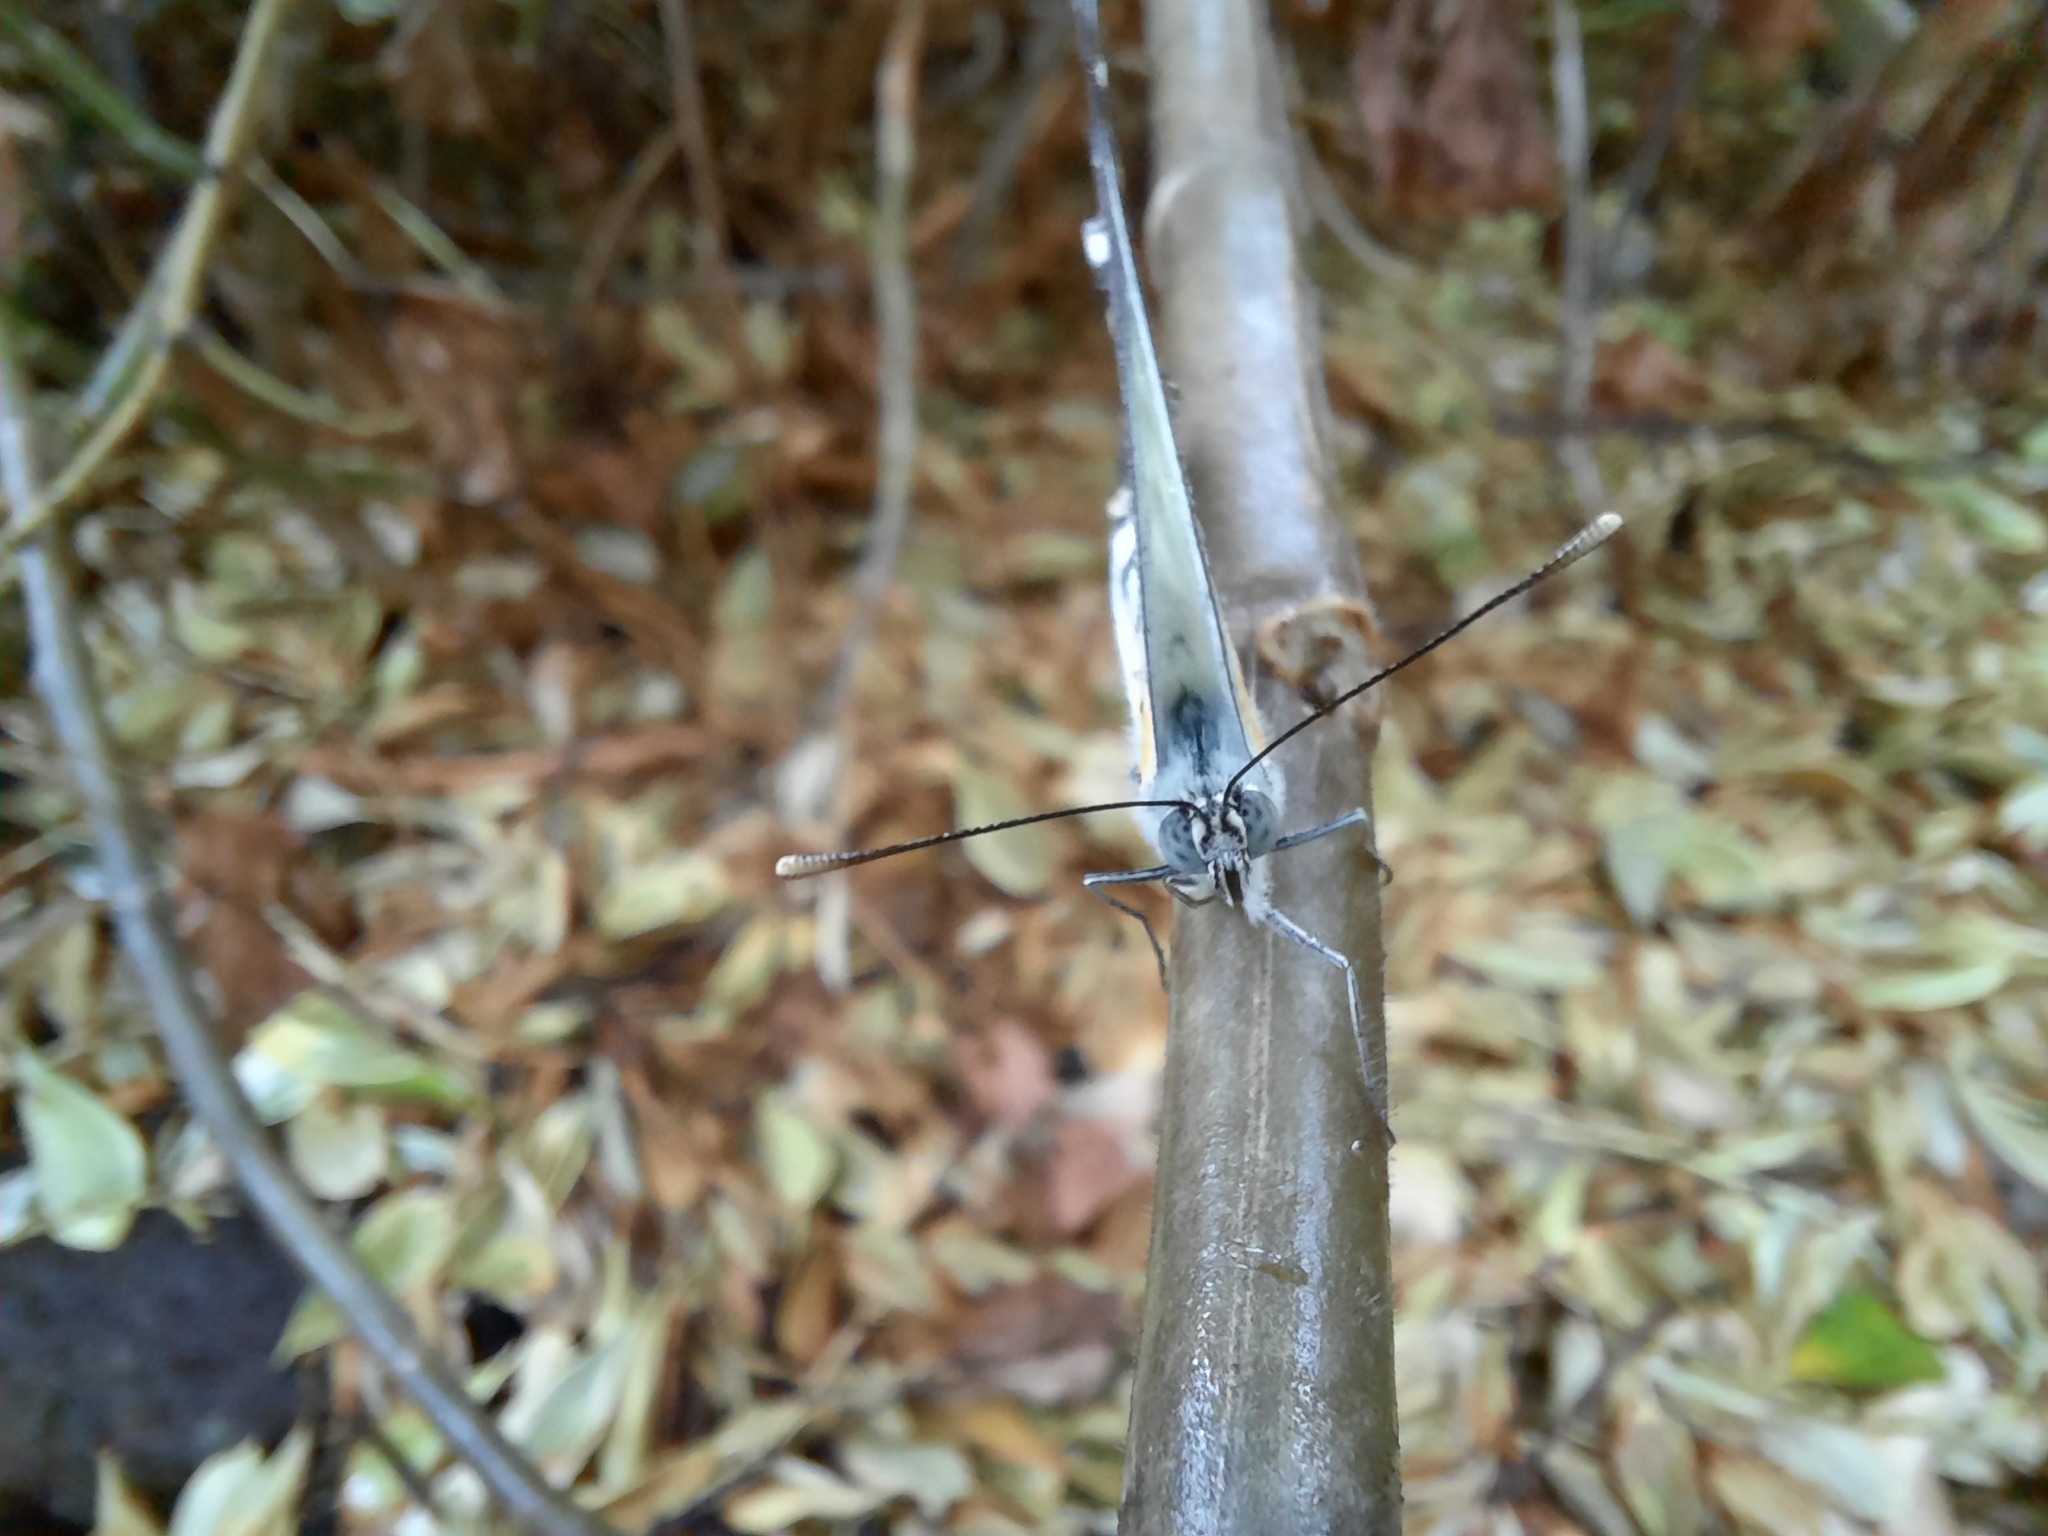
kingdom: Animalia
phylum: Arthropoda
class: Insecta
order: Lepidoptera
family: Pieridae
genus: Belenois
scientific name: Belenois java
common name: Caper white
